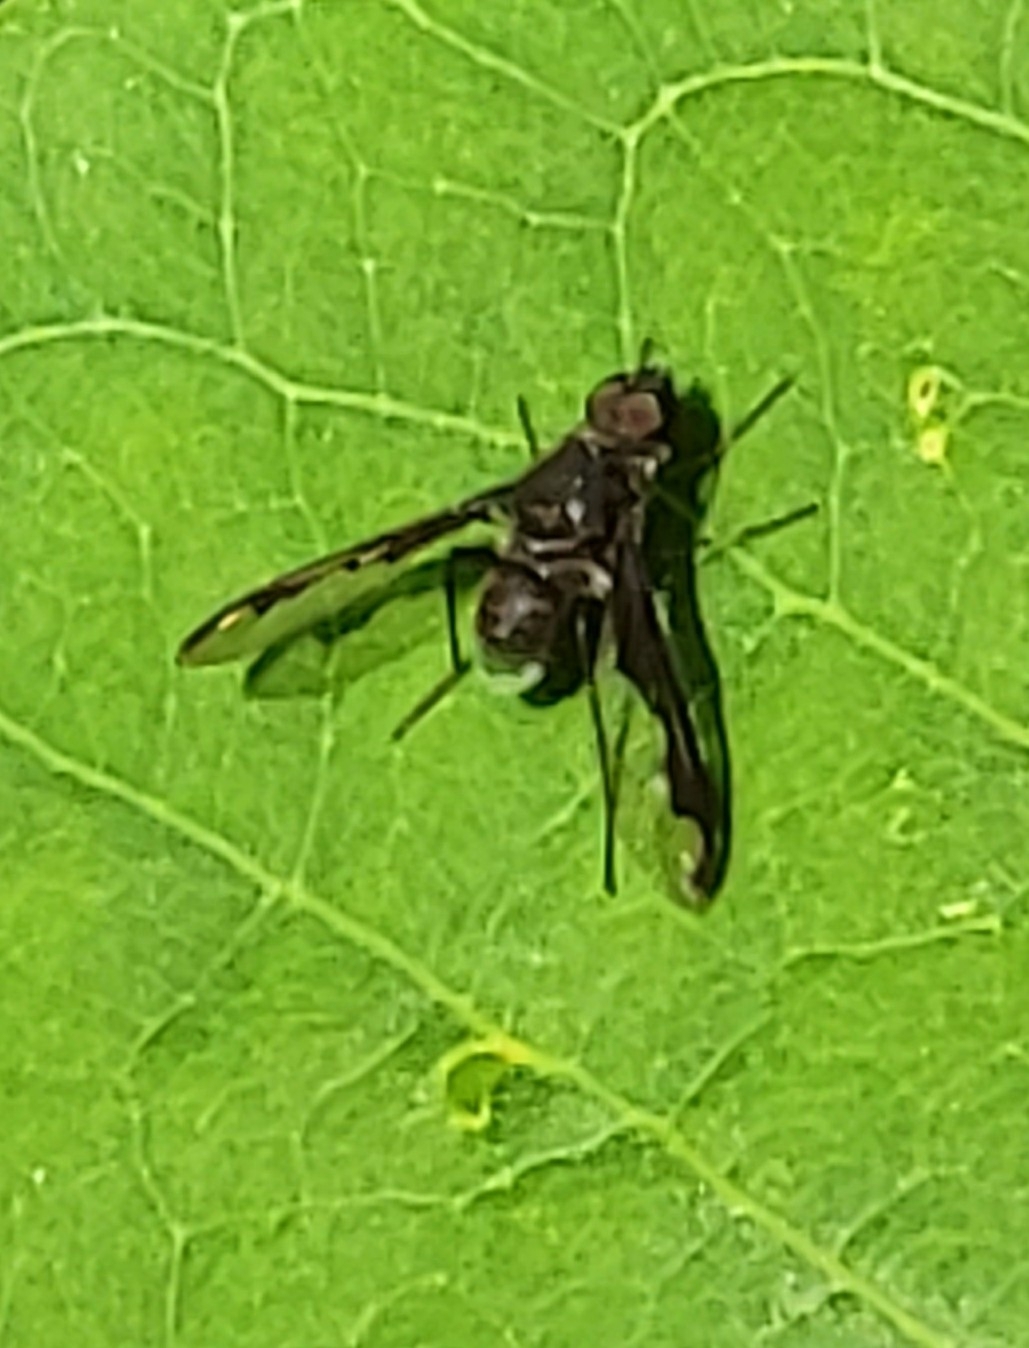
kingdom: Animalia
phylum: Arthropoda
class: Insecta
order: Diptera
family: Bombyliidae
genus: Anthrax
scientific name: Anthrax argyropygus
